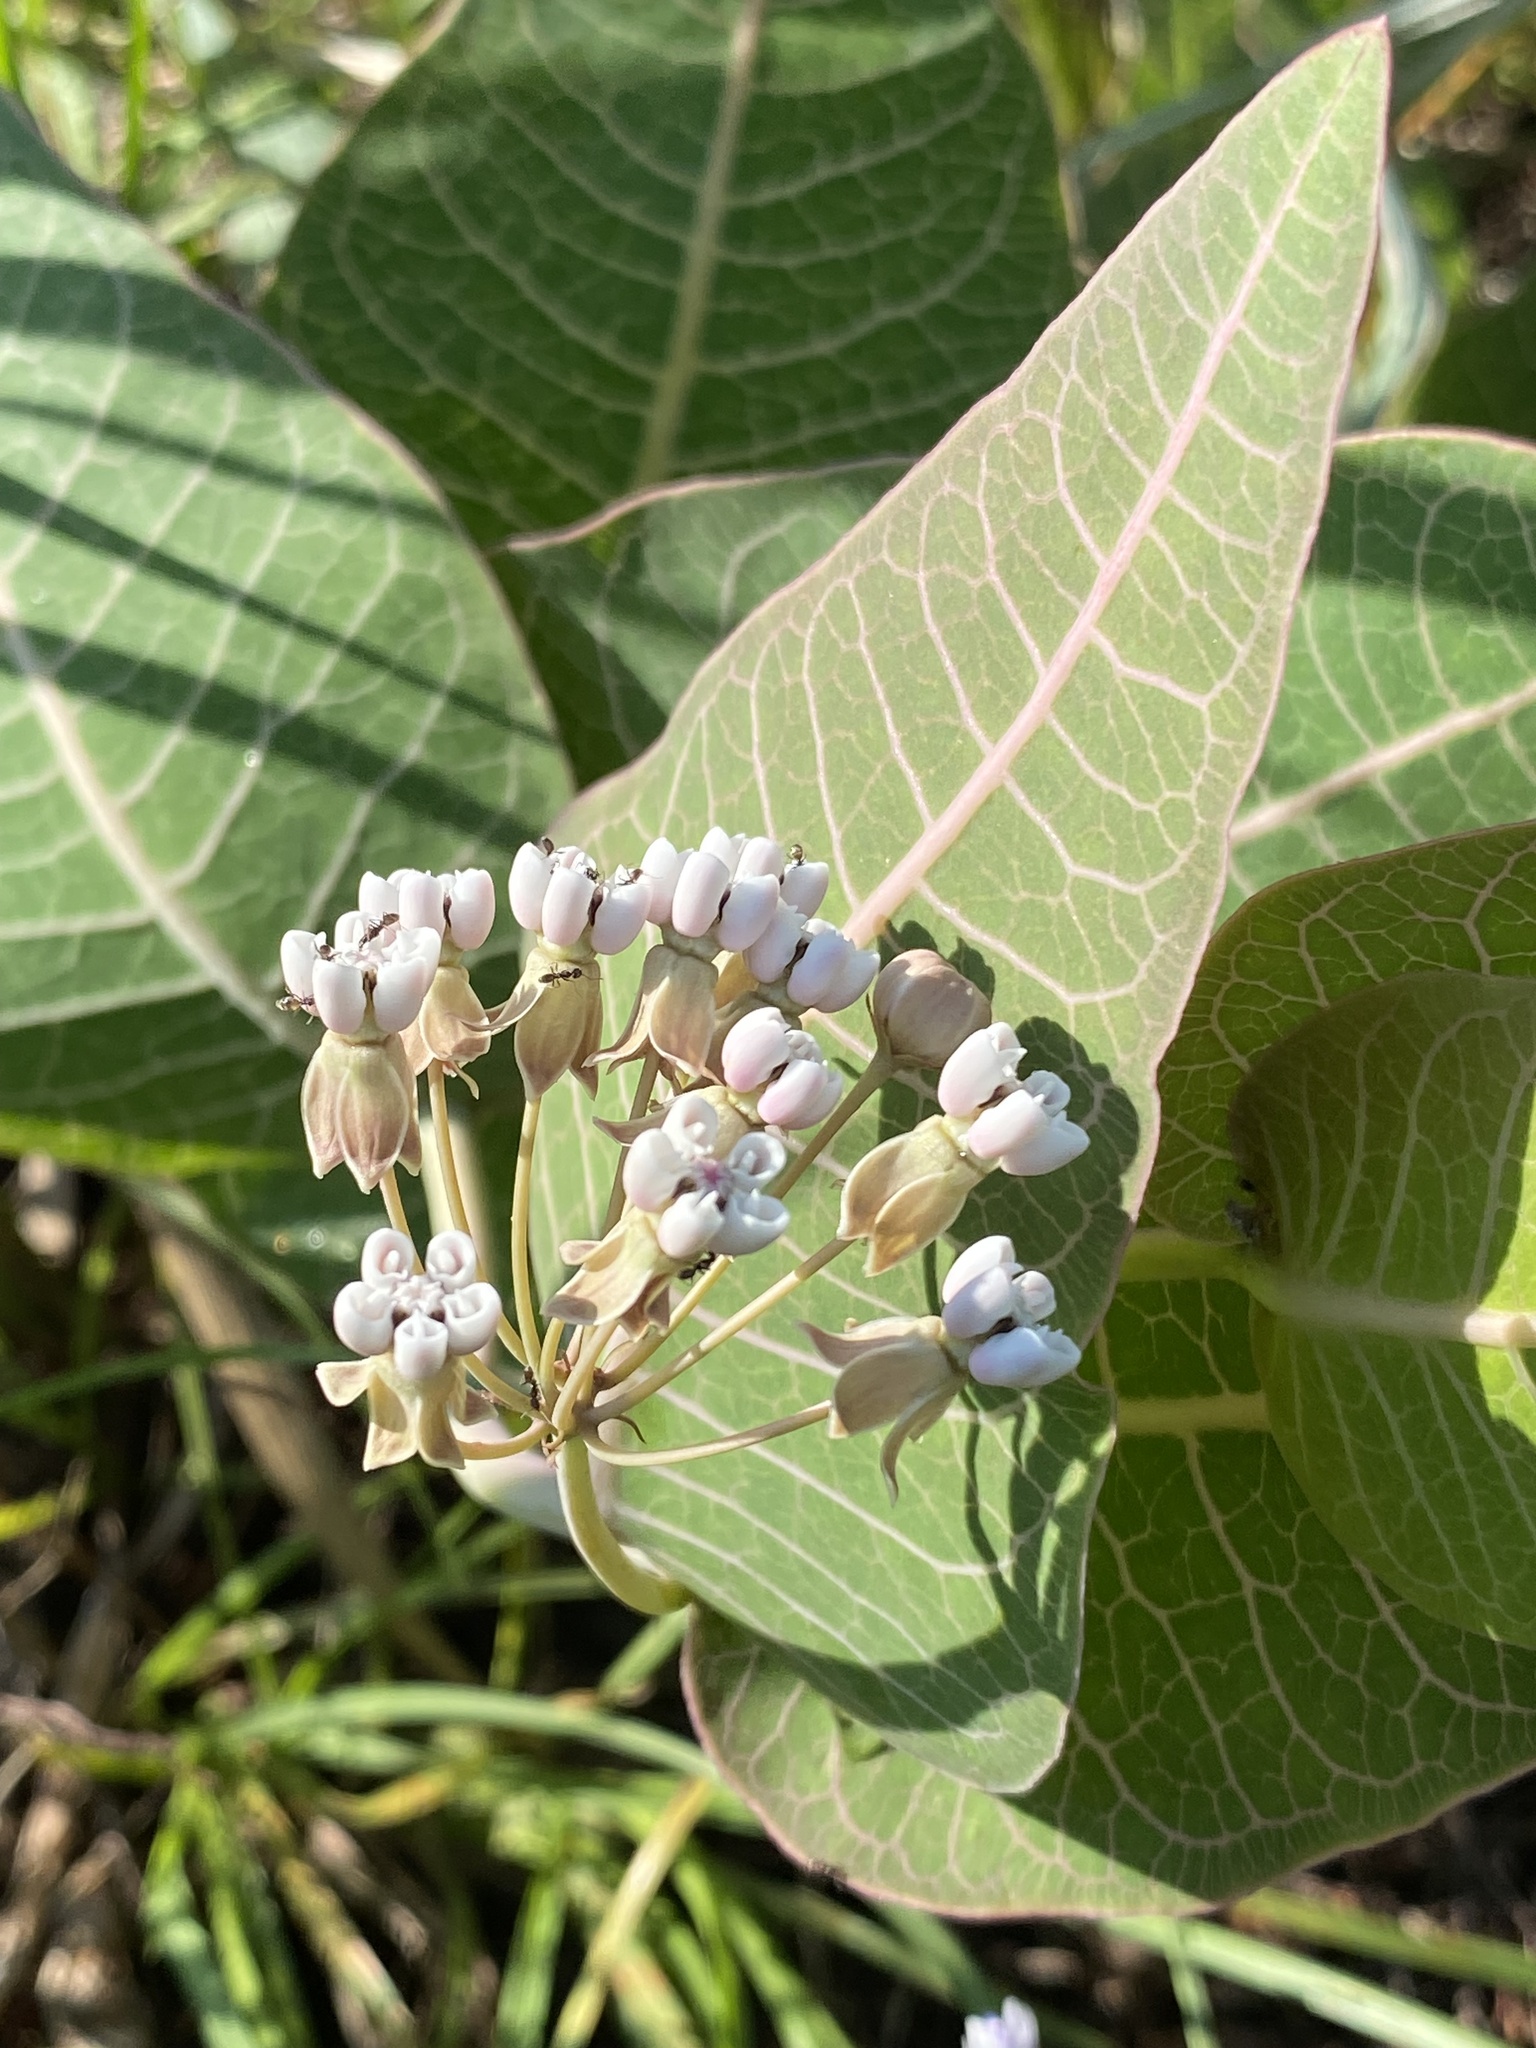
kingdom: Plantae
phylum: Tracheophyta
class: Magnoliopsida
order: Gentianales
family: Apocynaceae
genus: Asclepias
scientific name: Asclepias humistrata
